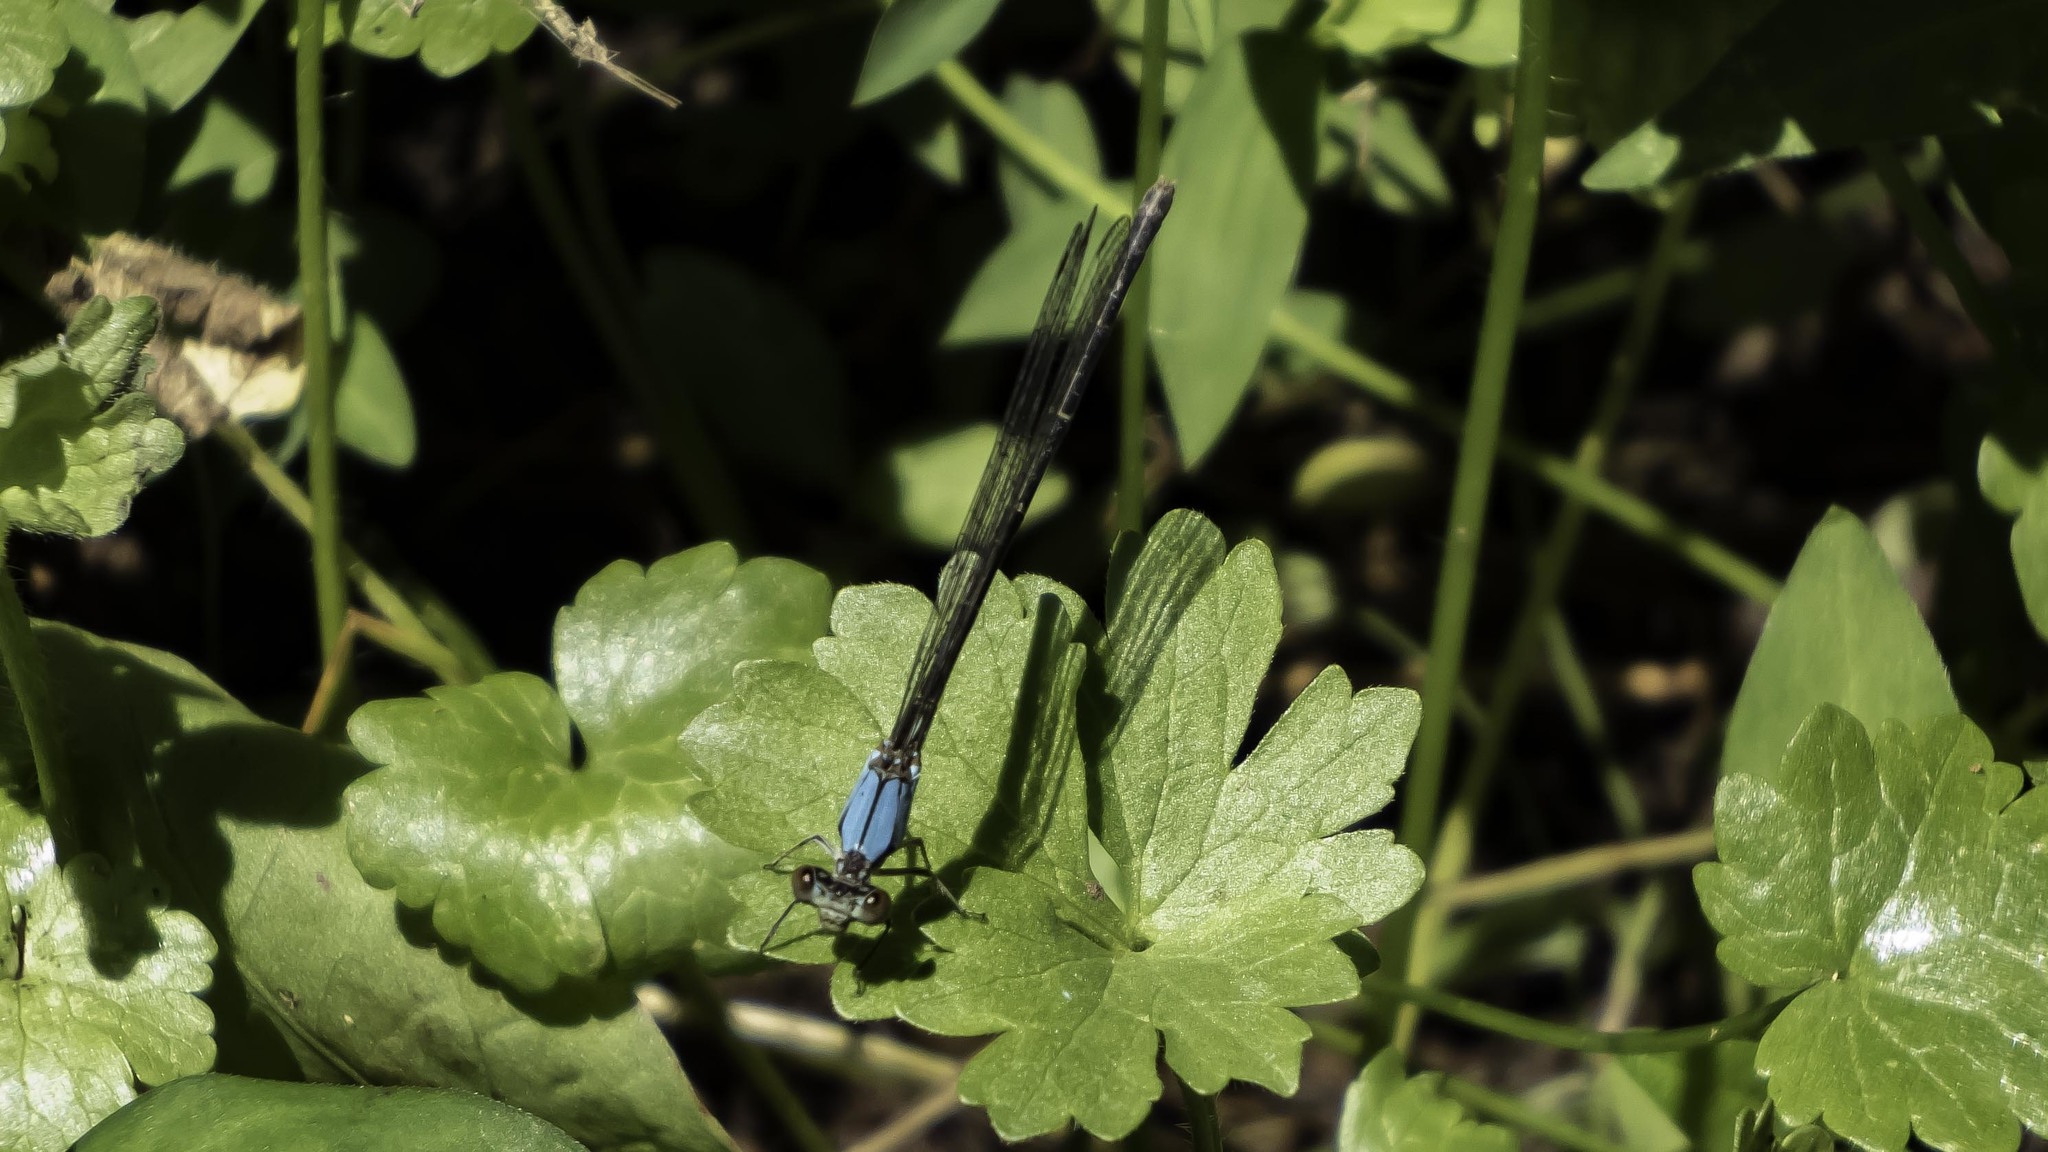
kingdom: Animalia
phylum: Arthropoda
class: Insecta
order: Odonata
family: Coenagrionidae
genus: Argia
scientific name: Argia apicalis
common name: Blue-fronted dancer
